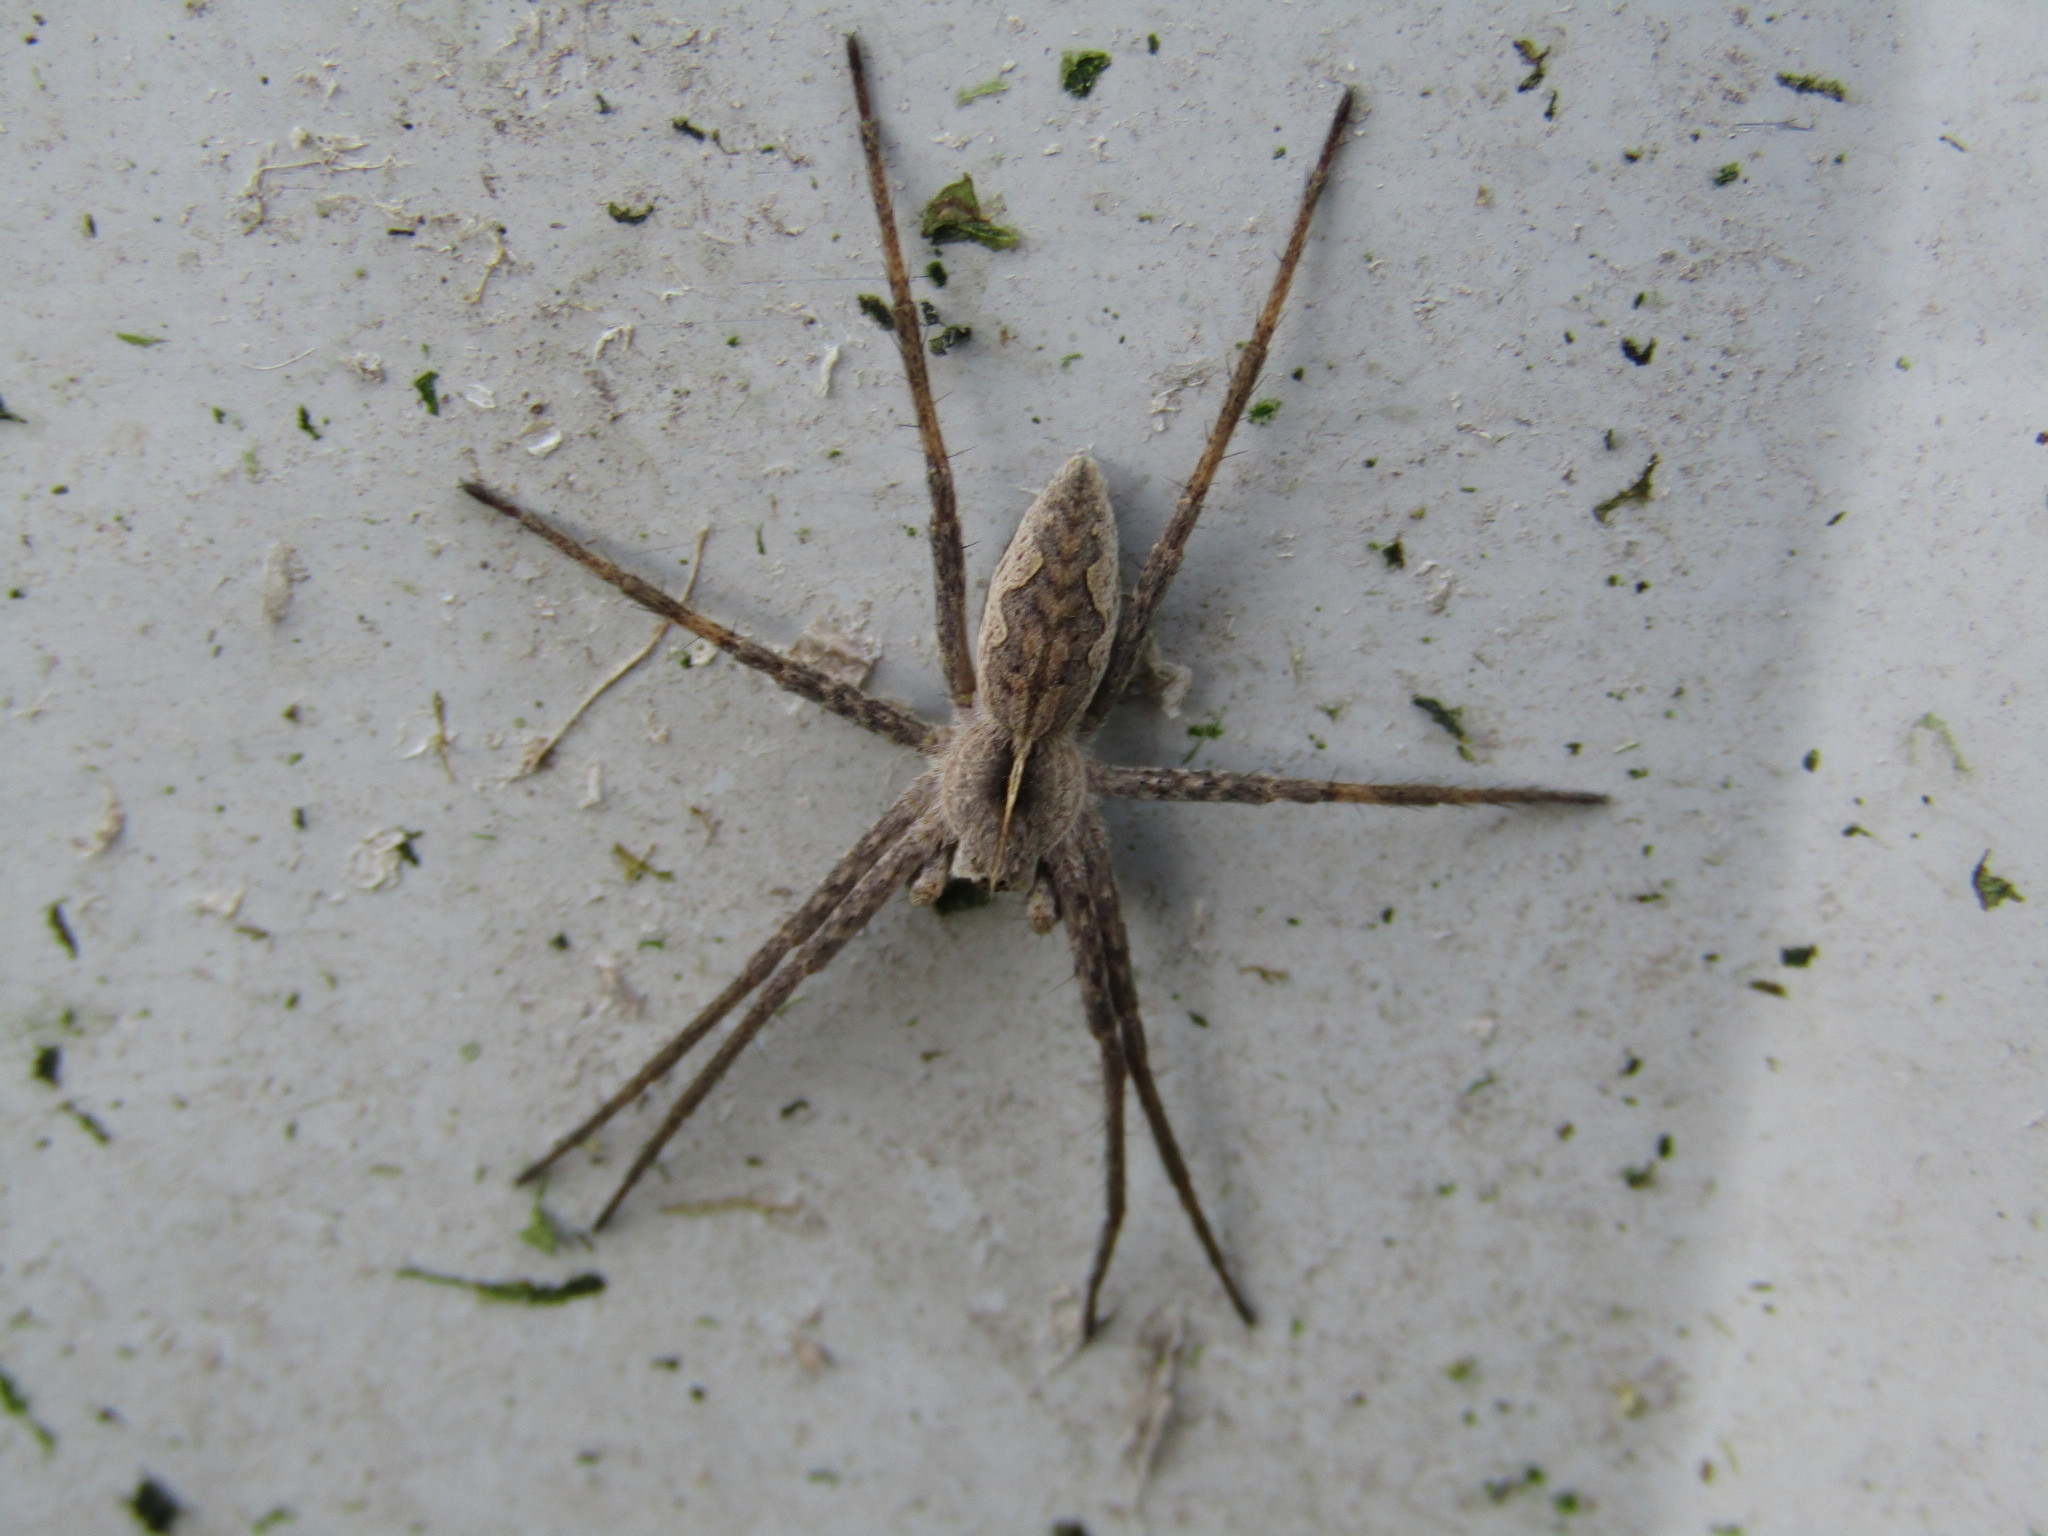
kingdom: Animalia
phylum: Arthropoda
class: Arachnida
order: Araneae
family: Pisauridae
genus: Pisaura
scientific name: Pisaura mirabilis
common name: Tent spider
